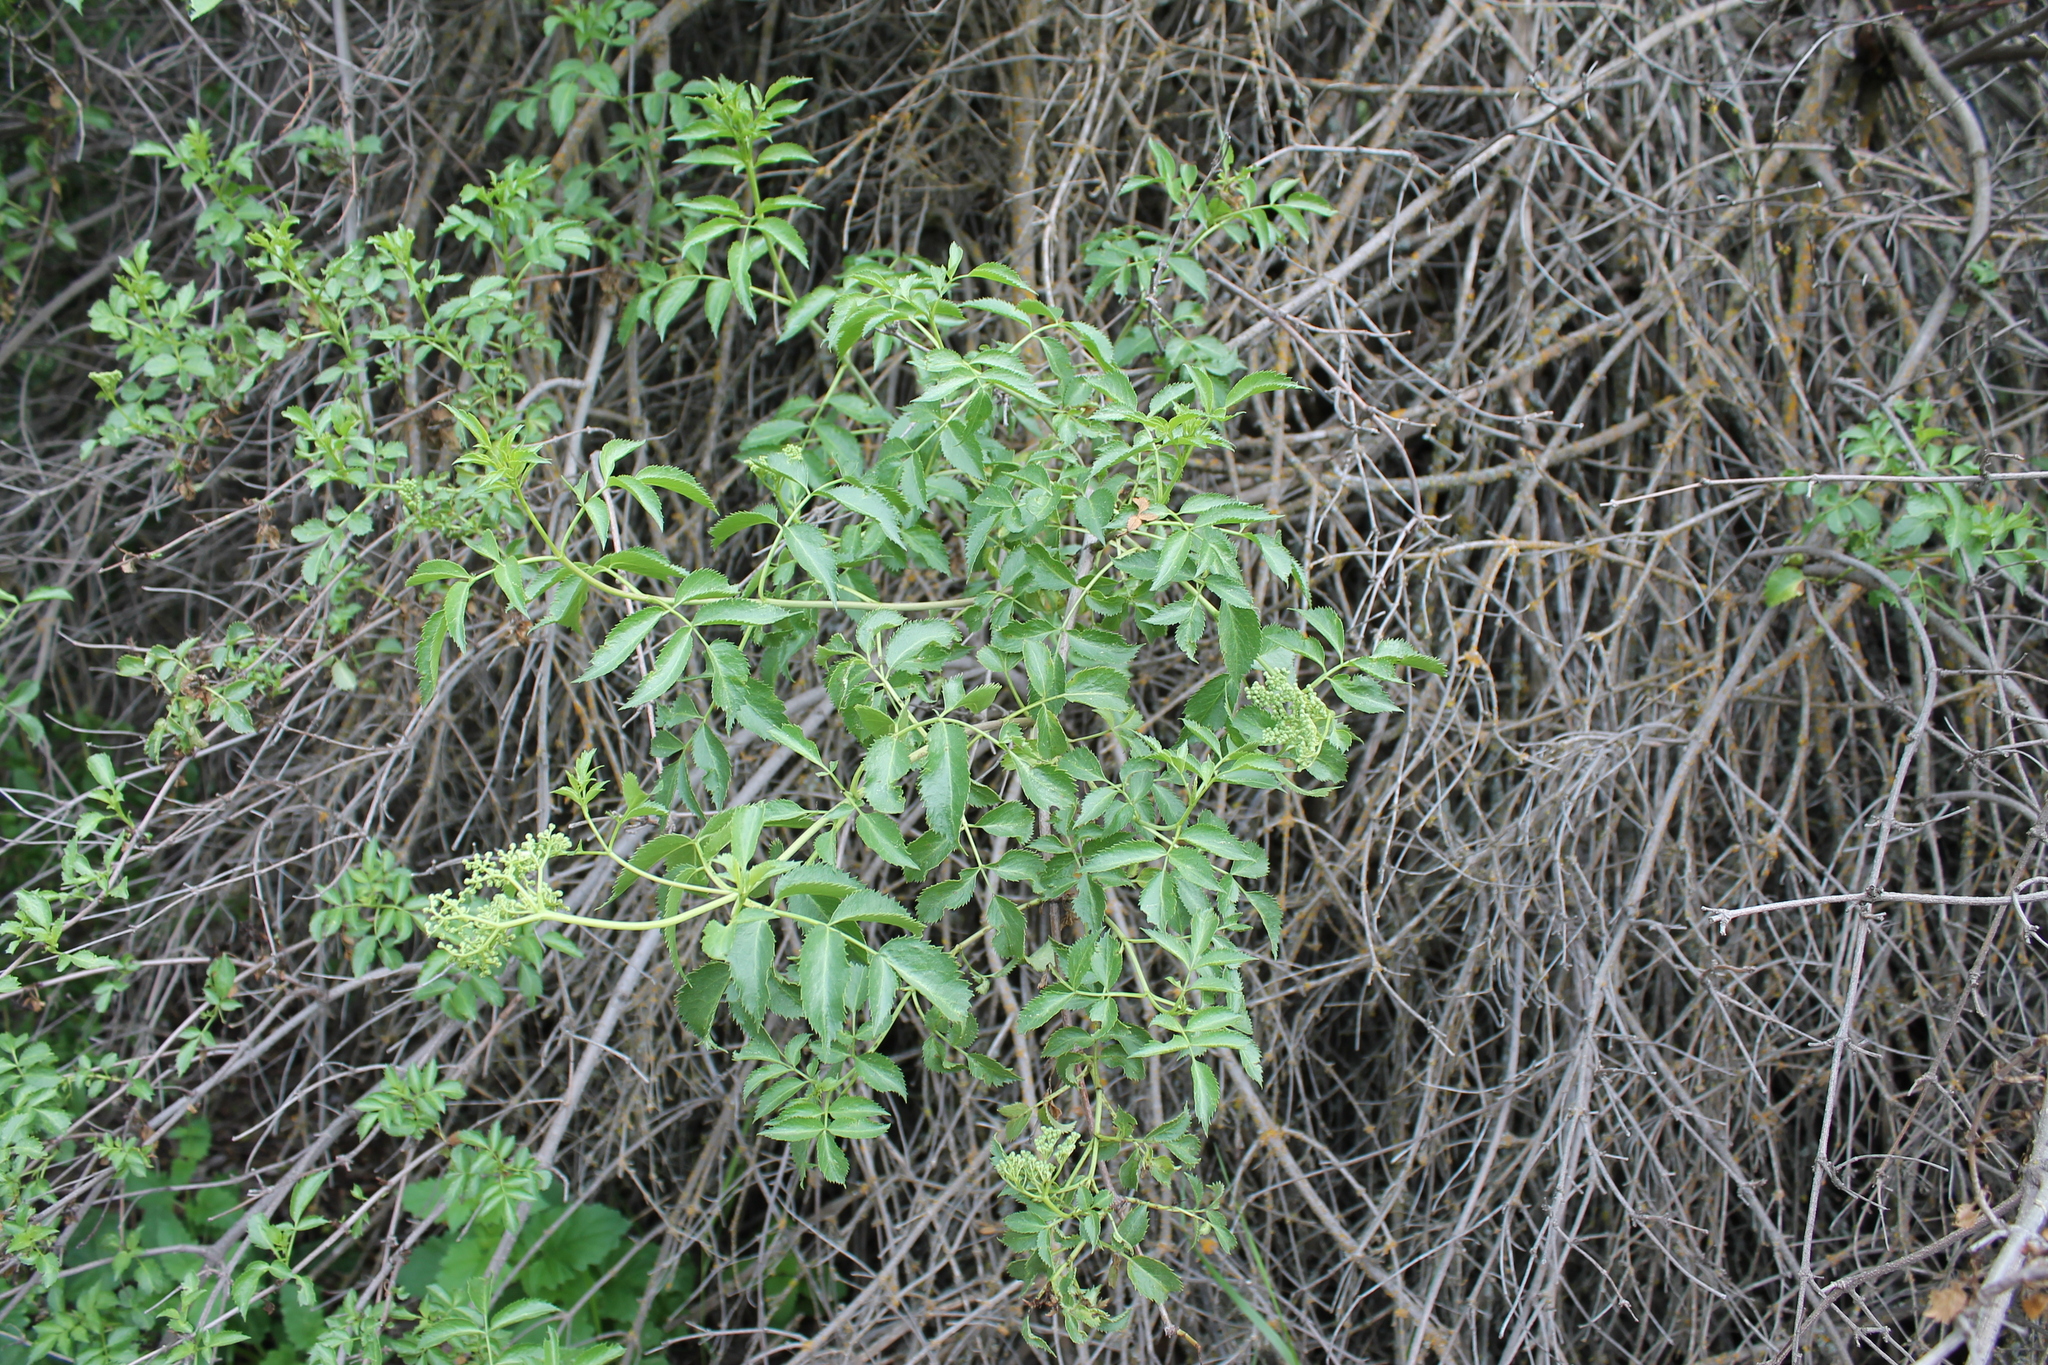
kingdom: Plantae
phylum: Tracheophyta
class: Magnoliopsida
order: Dipsacales
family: Viburnaceae
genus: Sambucus
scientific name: Sambucus cerulea
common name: Blue elder
